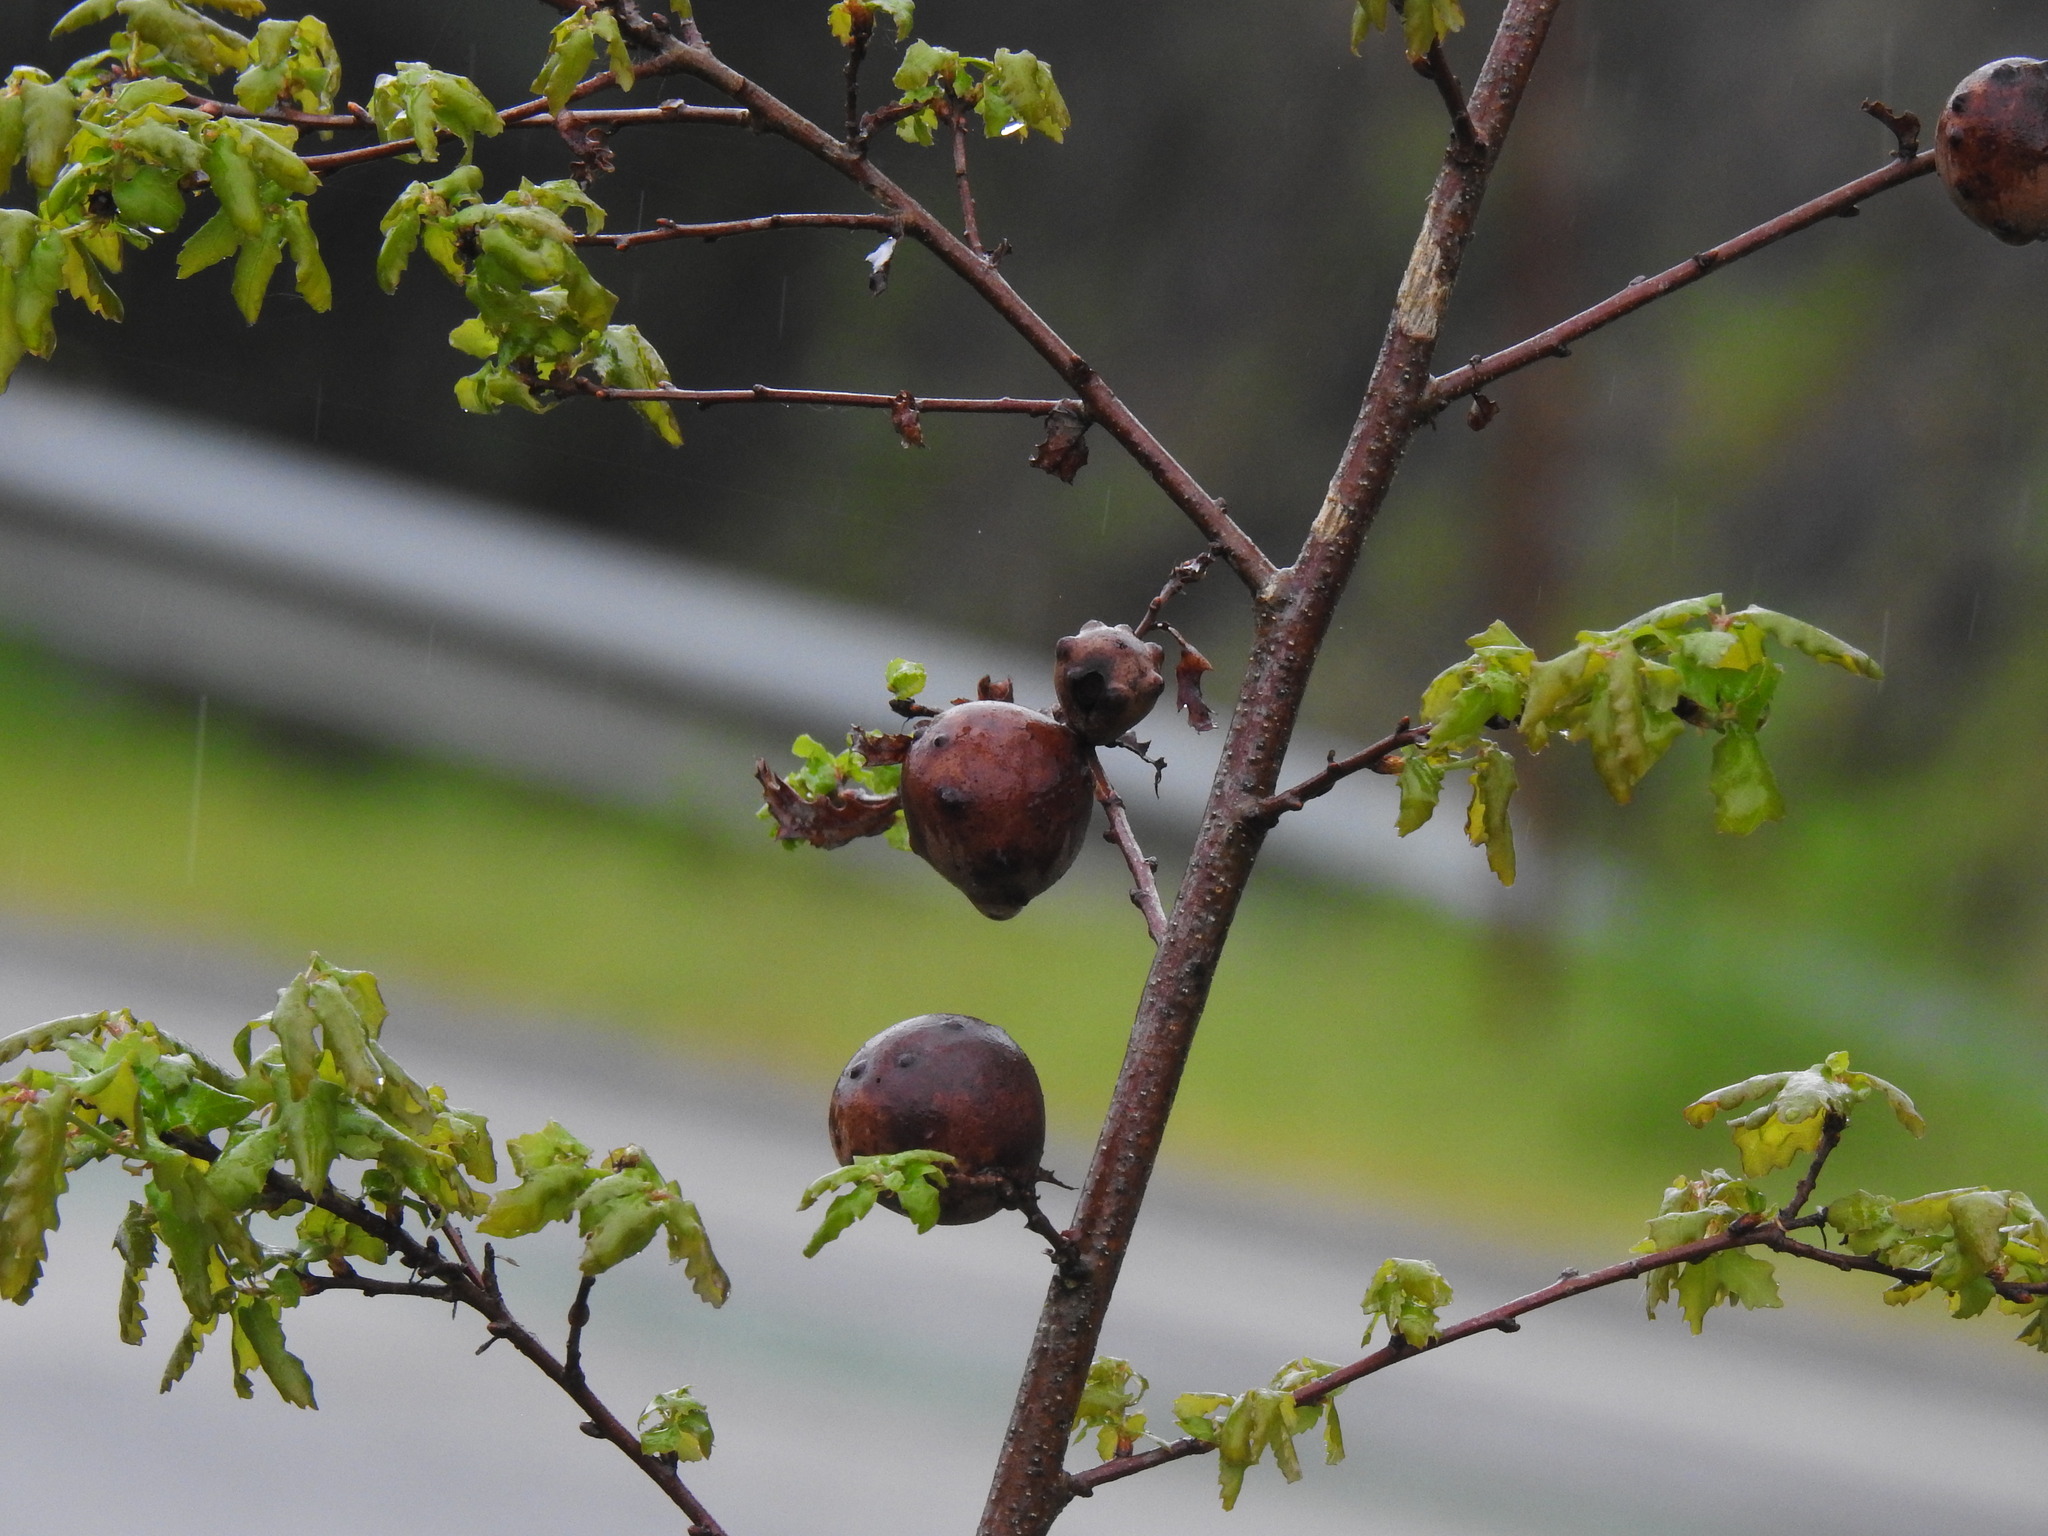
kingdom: Animalia
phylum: Arthropoda
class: Insecta
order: Hymenoptera
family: Cynipidae
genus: Andricus
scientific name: Andricus quercustozae
